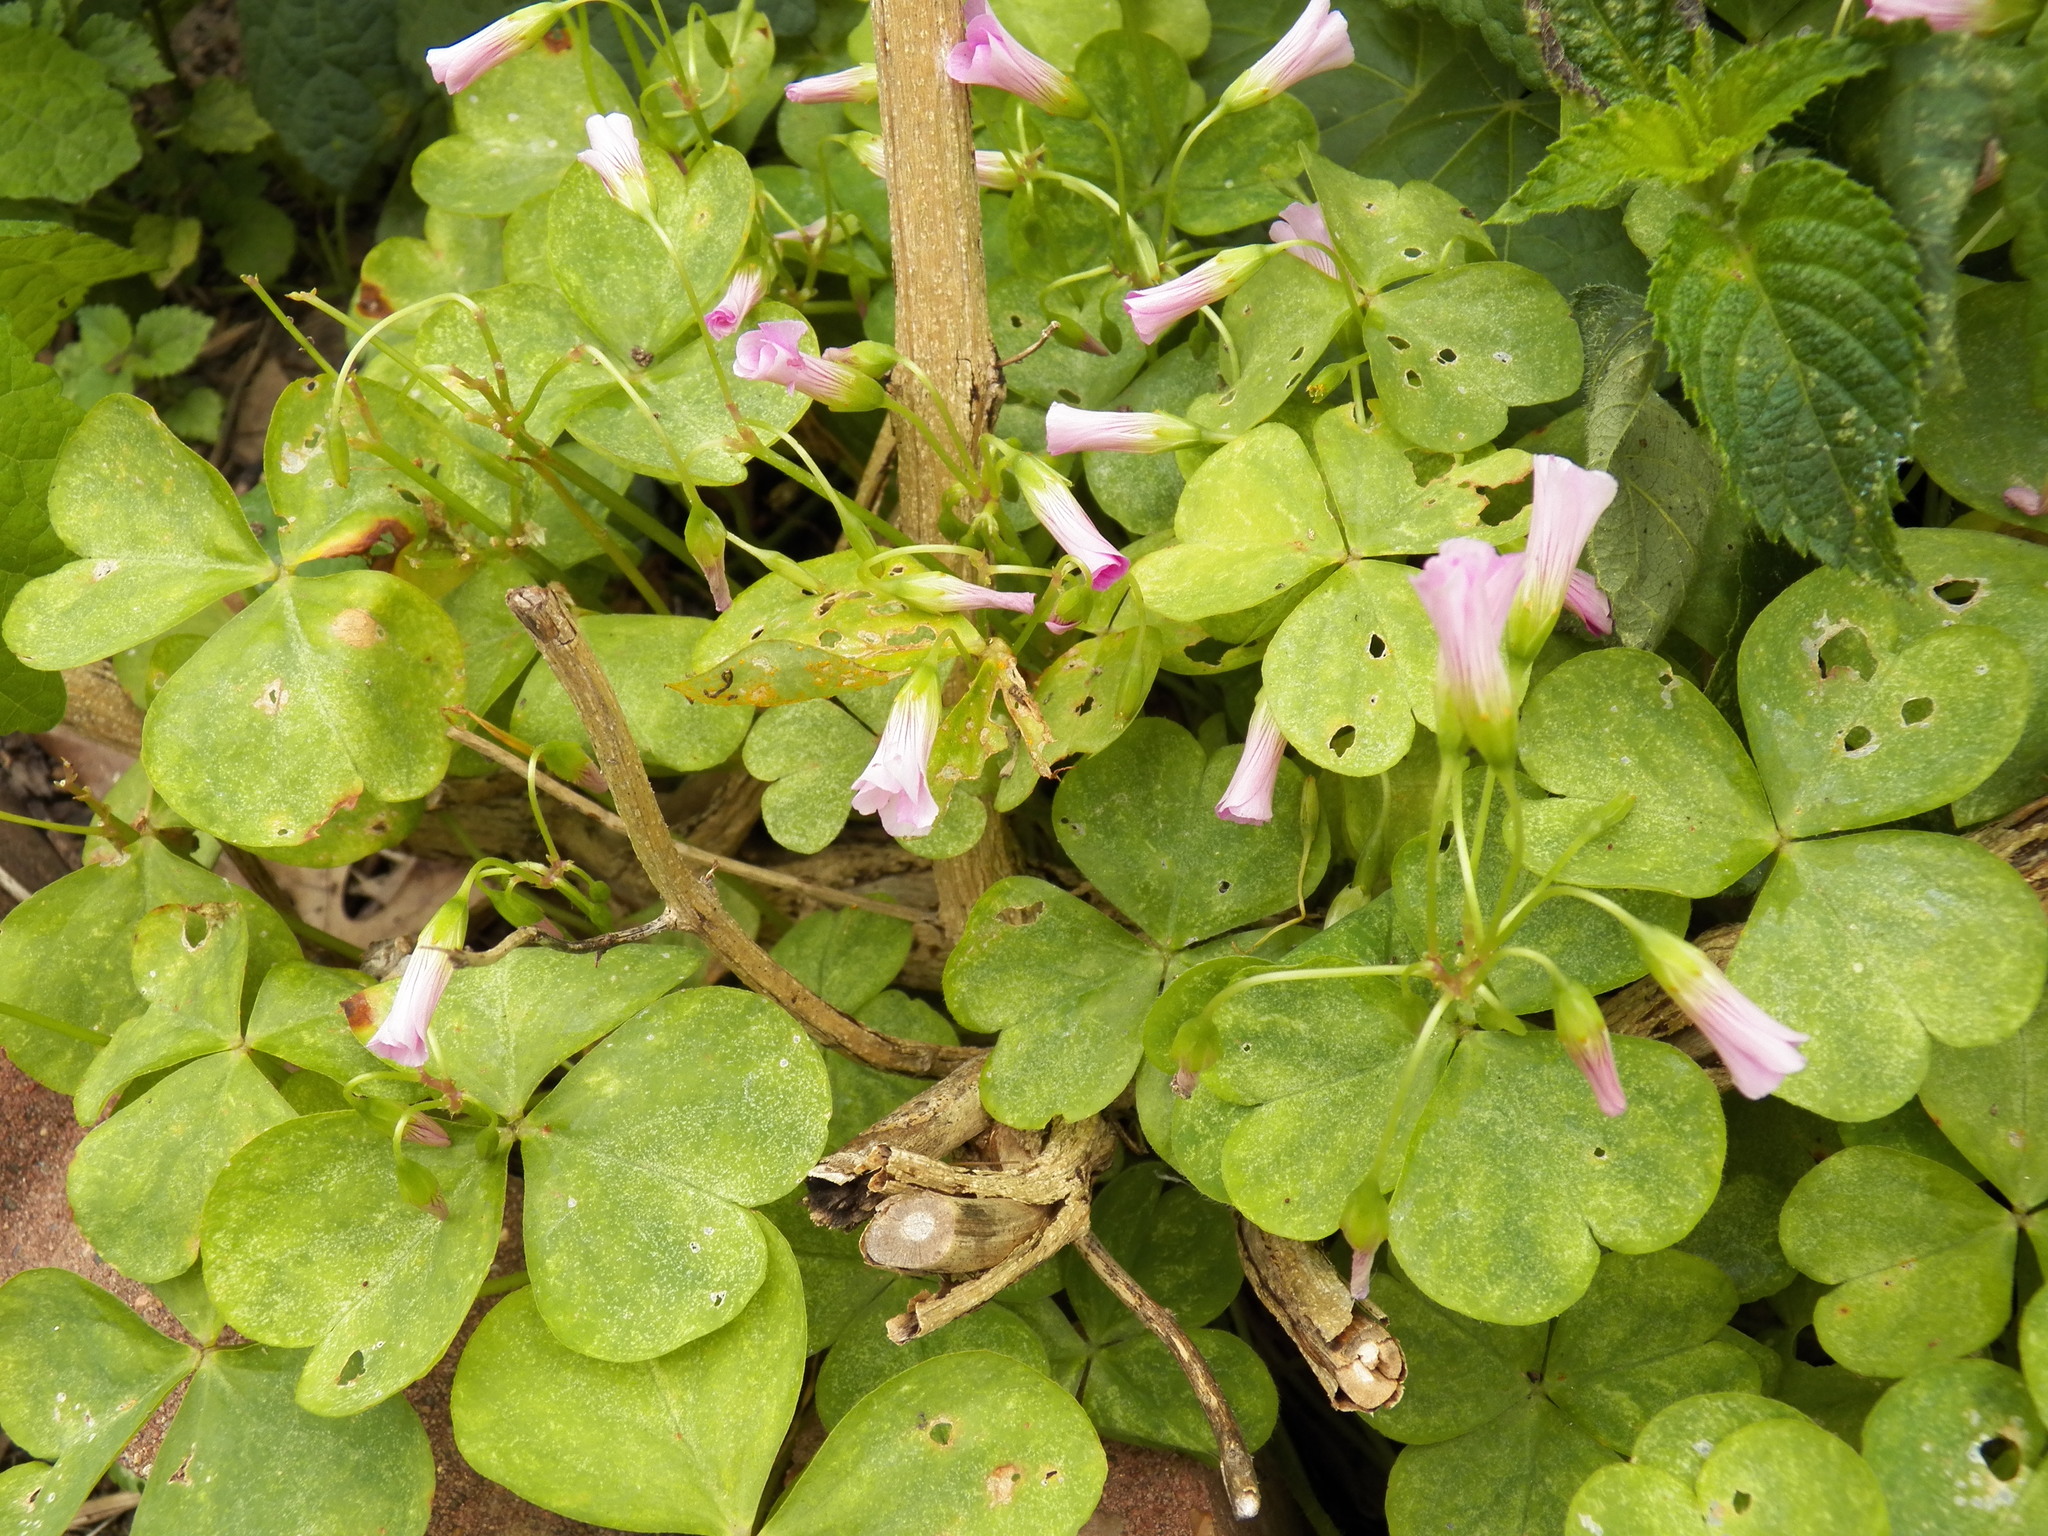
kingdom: Plantae
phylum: Tracheophyta
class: Magnoliopsida
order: Oxalidales
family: Oxalidaceae
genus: Oxalis
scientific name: Oxalis debilis
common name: Large-flowered pink-sorrel
